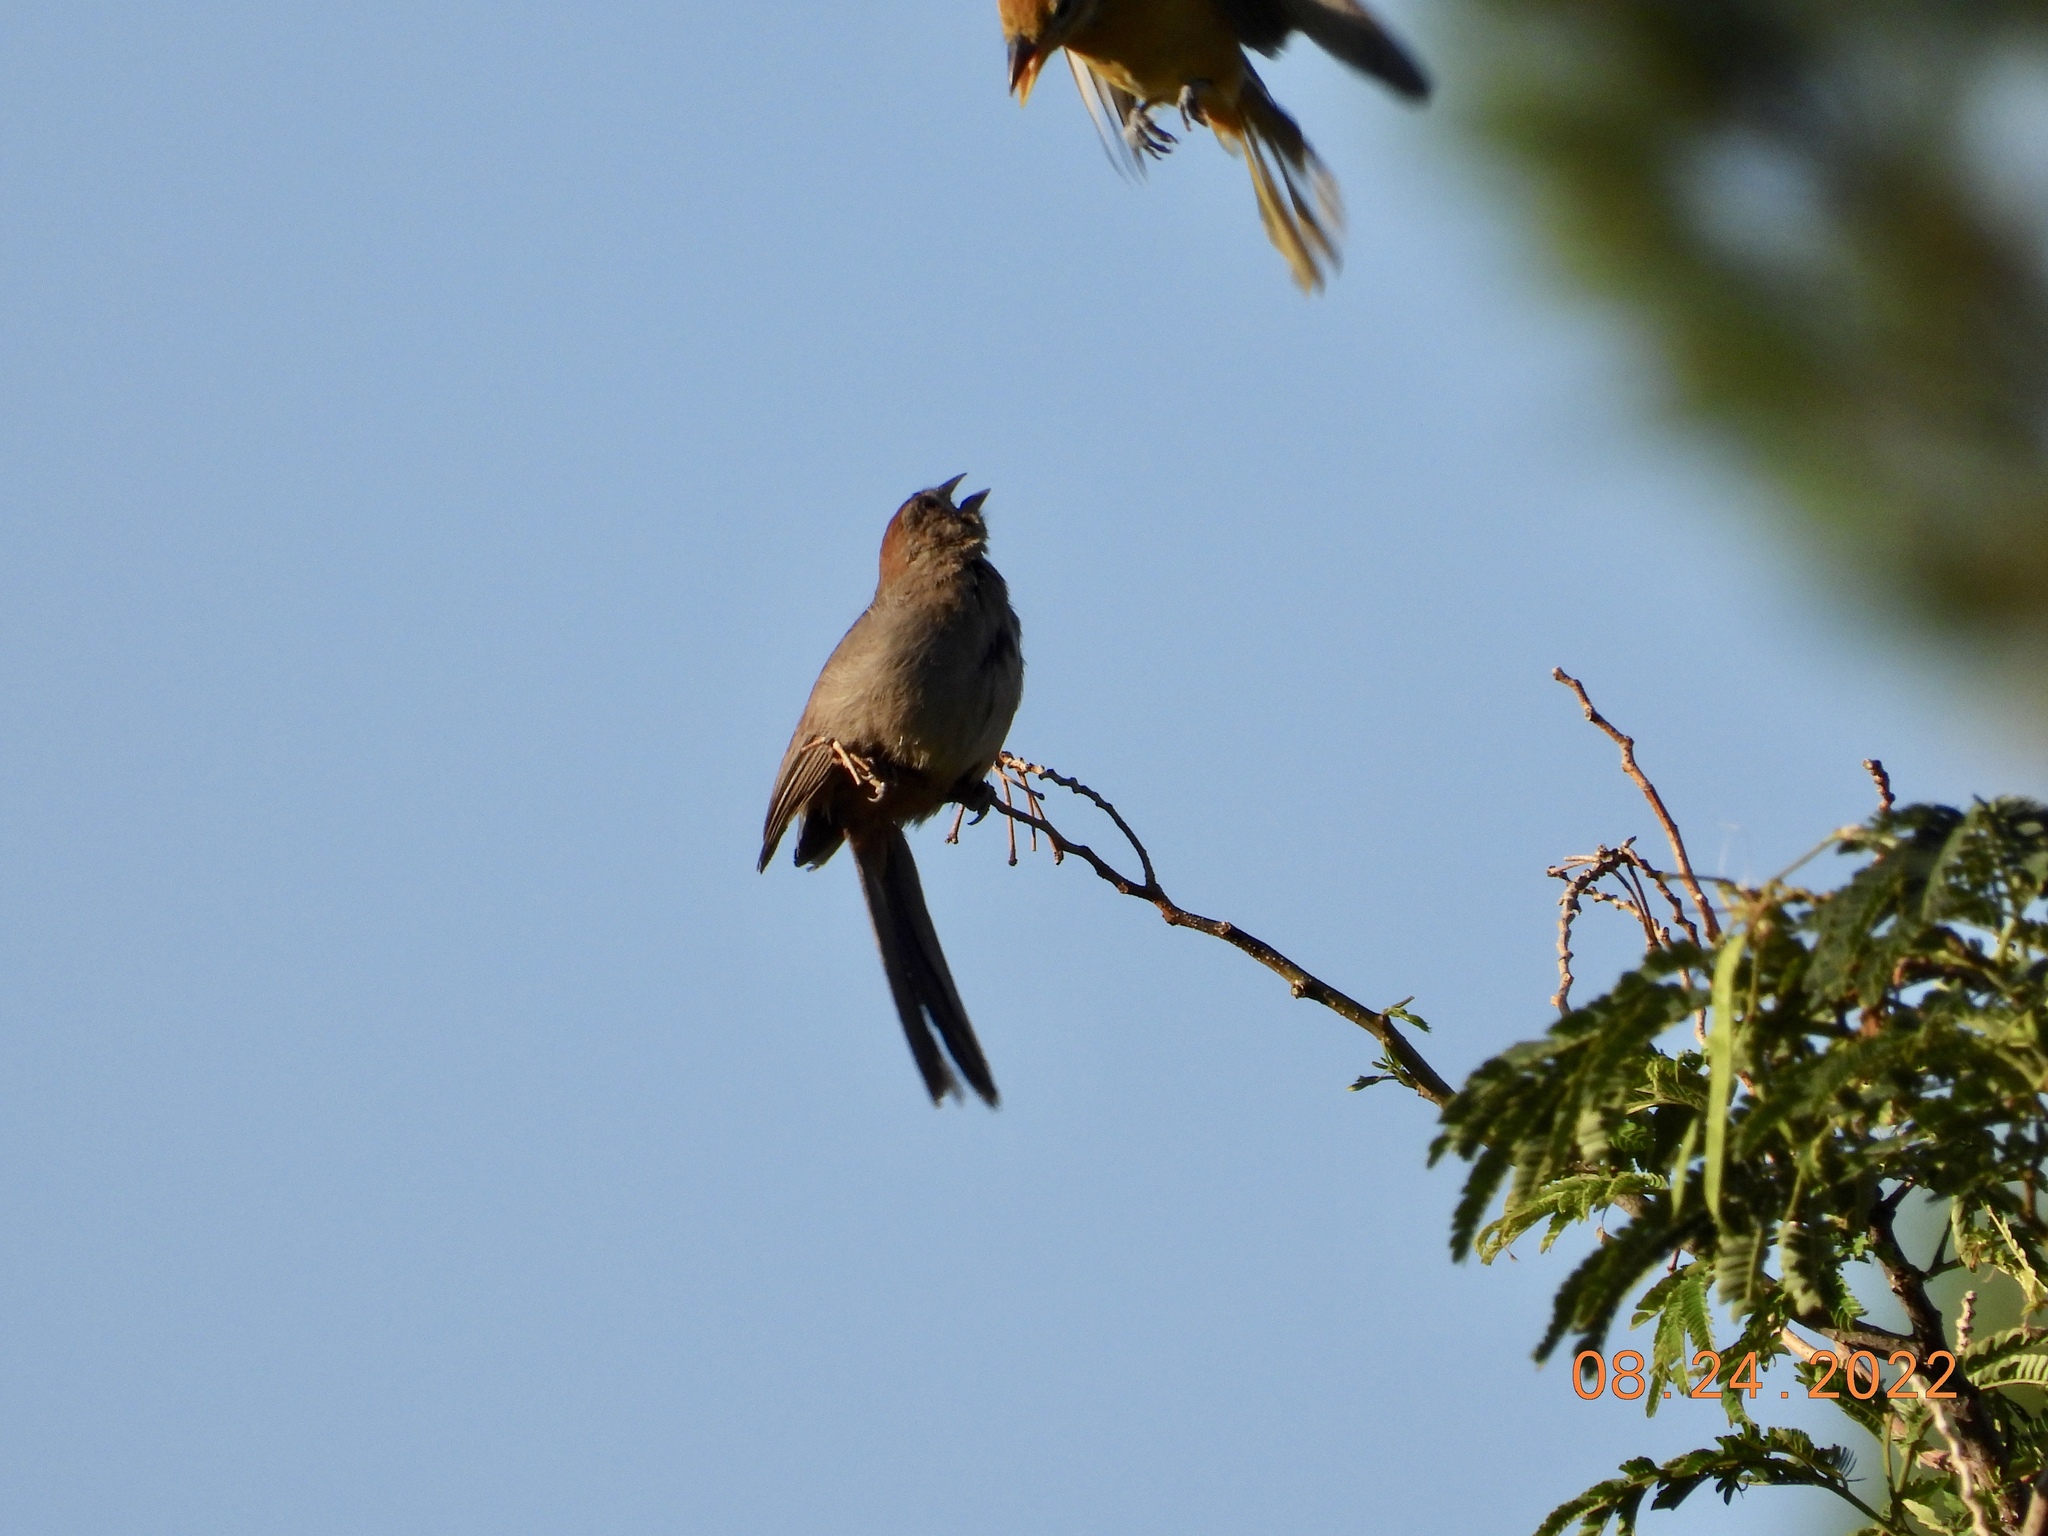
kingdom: Animalia
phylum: Chordata
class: Aves
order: Passeriformes
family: Passerellidae
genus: Melozone
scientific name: Melozone fusca
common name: Canyon towhee
